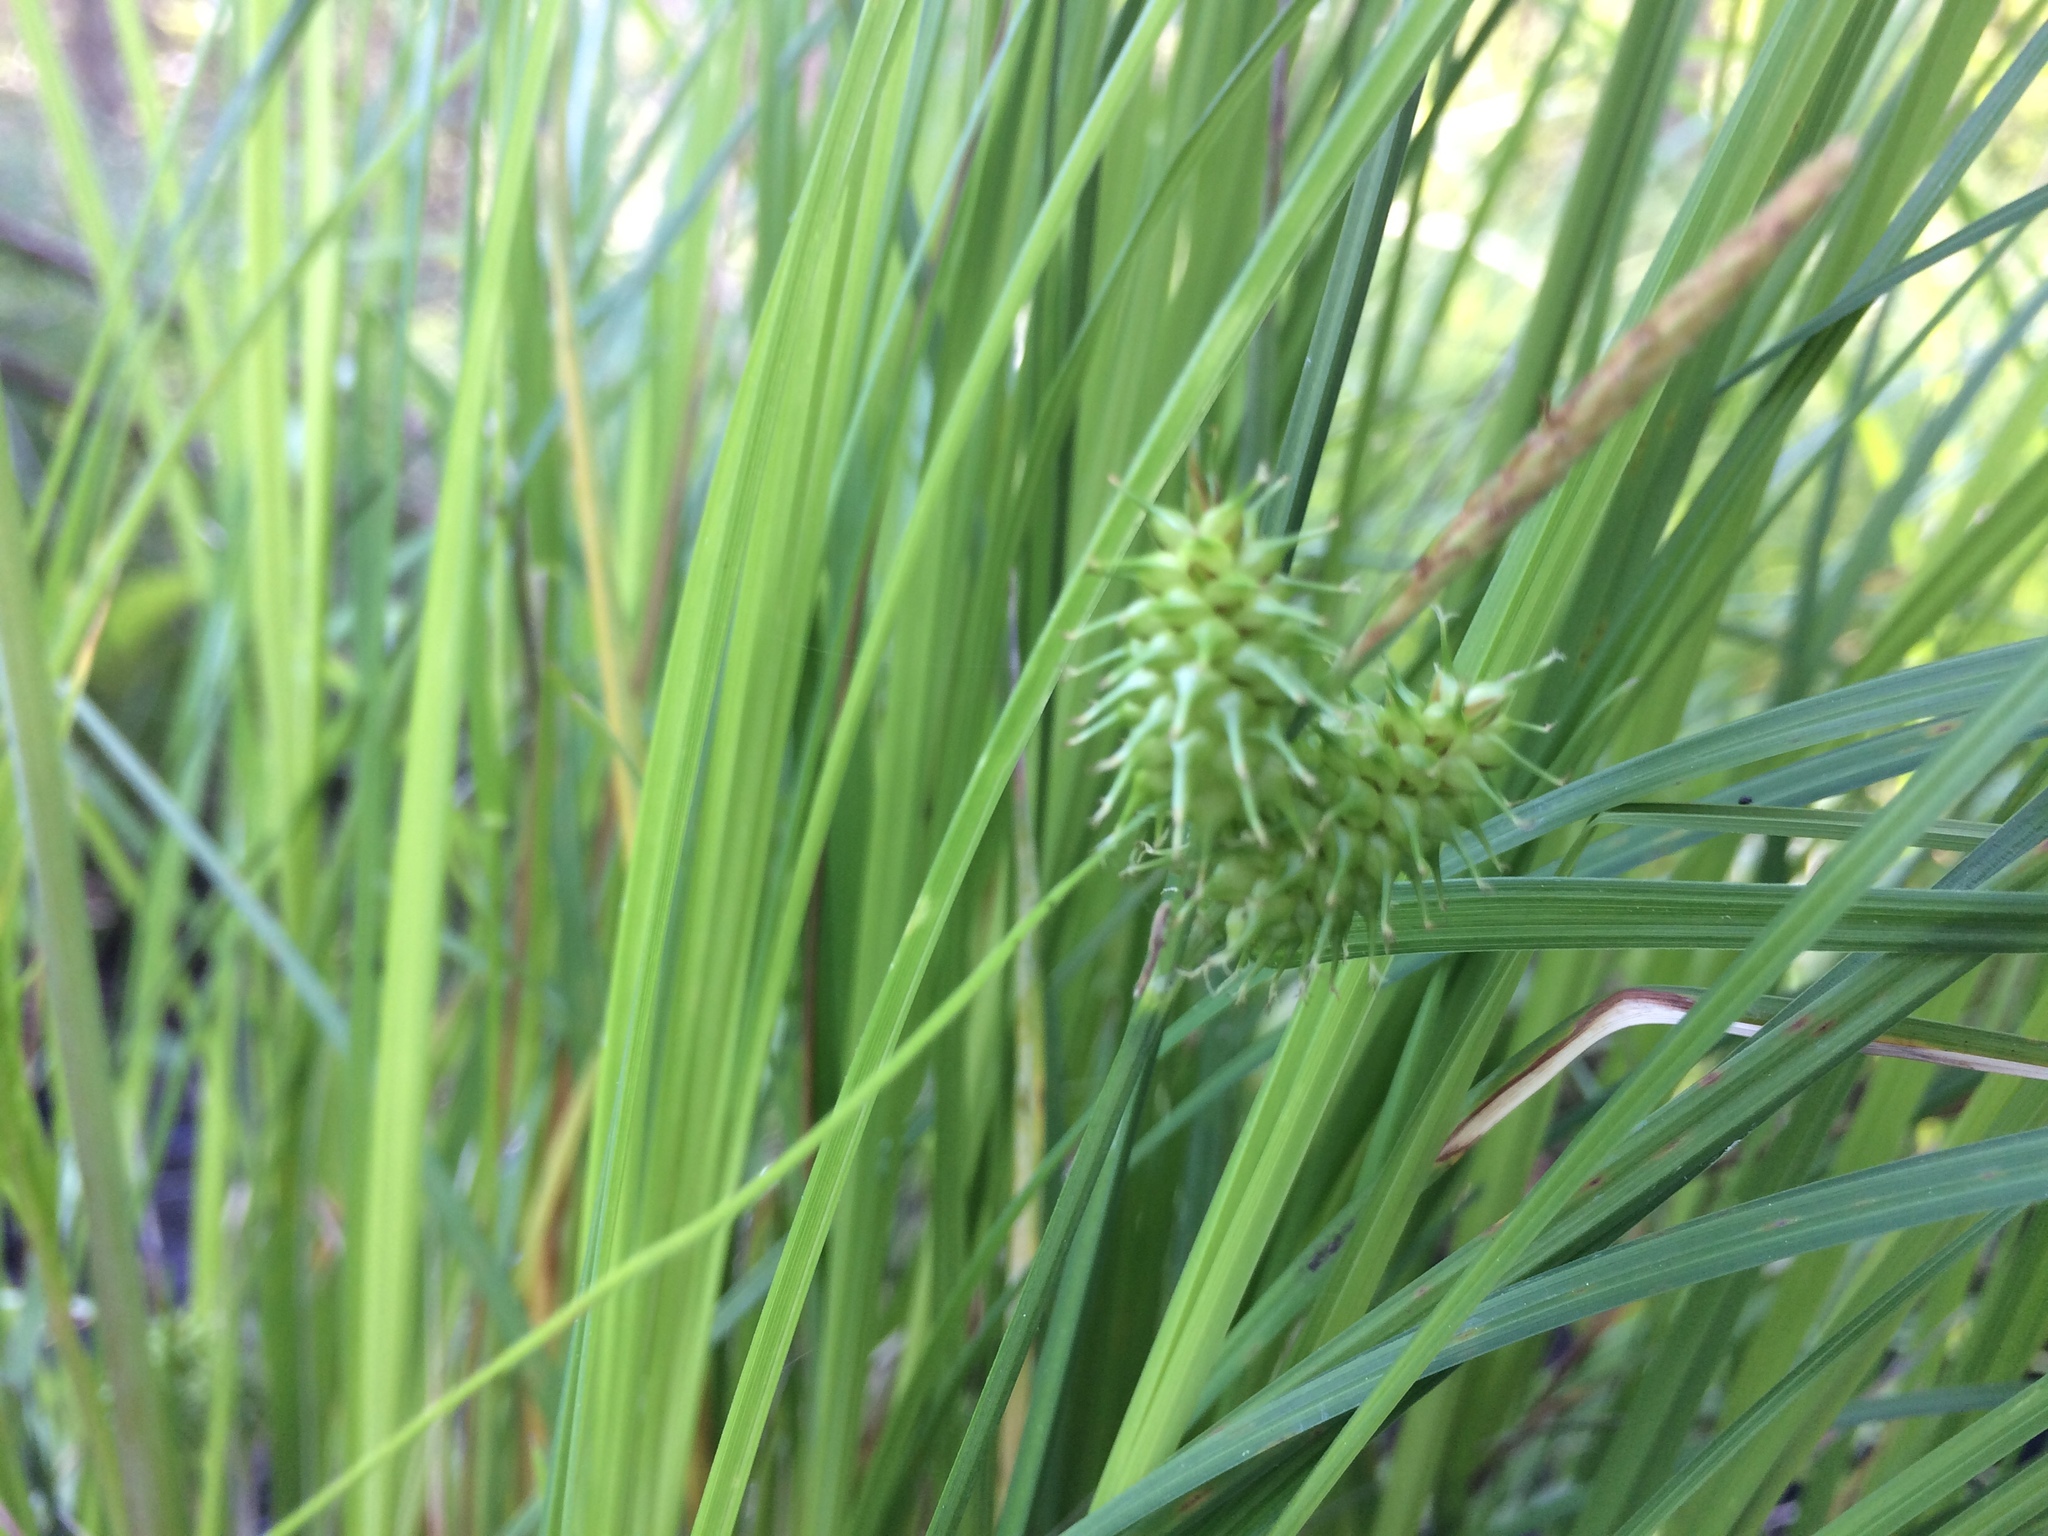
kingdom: Plantae
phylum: Tracheophyta
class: Liliopsida
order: Poales
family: Cyperaceae
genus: Carex
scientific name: Carex flava
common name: Large yellow-sedge
